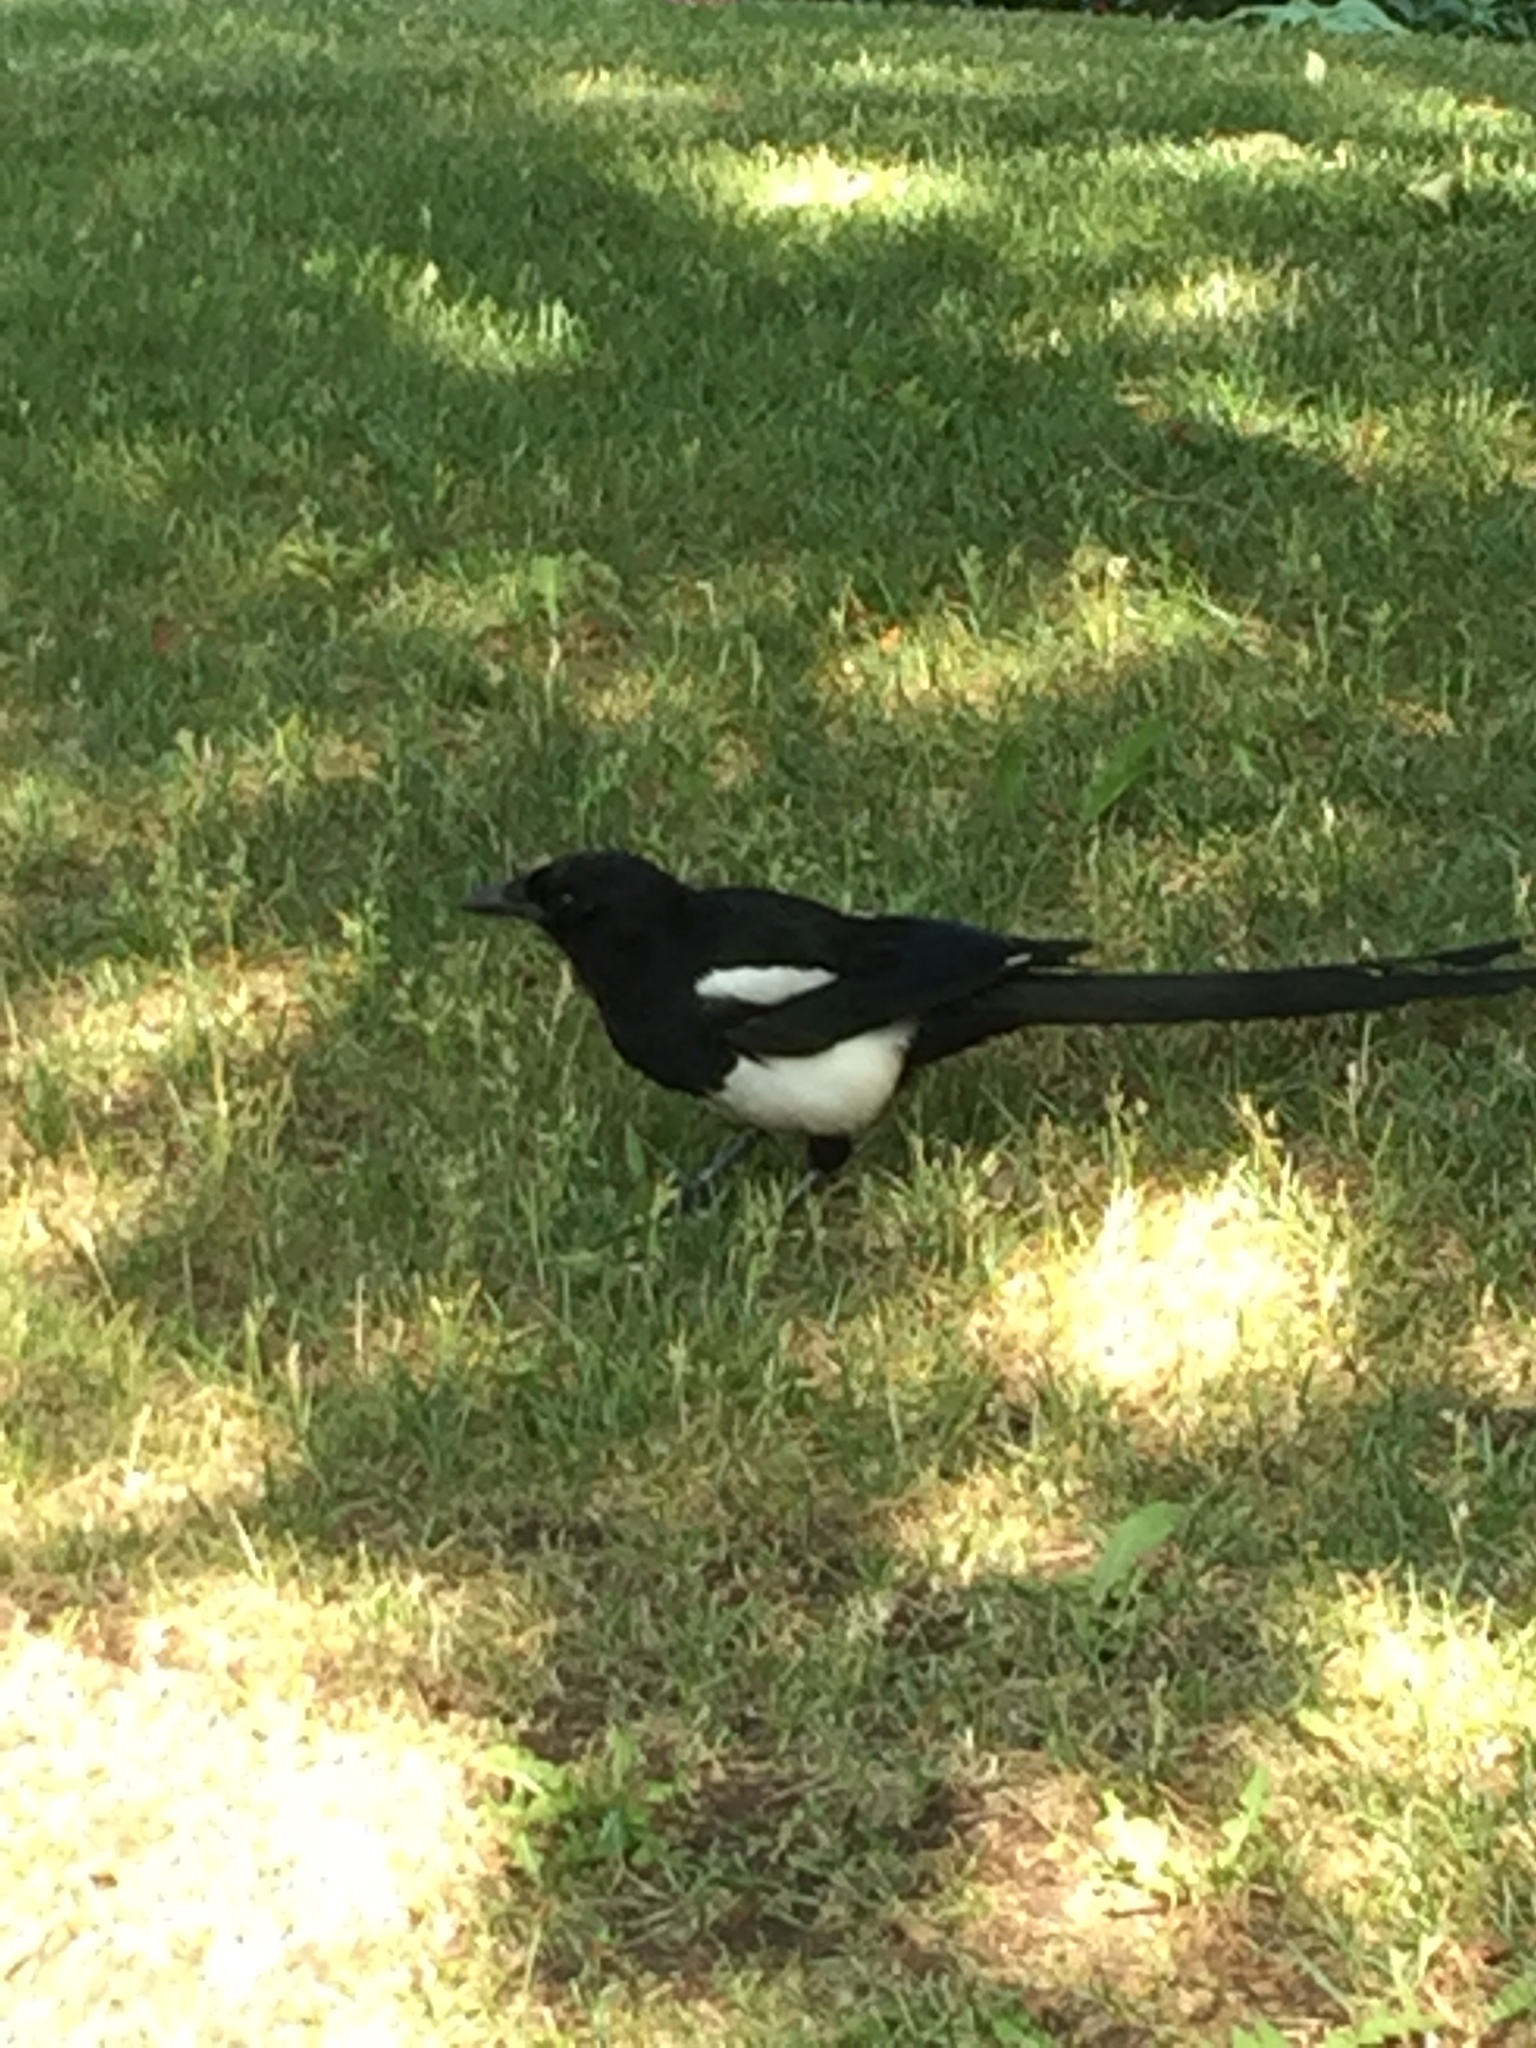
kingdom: Animalia
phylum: Chordata
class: Aves
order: Passeriformes
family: Corvidae
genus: Pica
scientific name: Pica hudsonia
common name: Black-billed magpie
